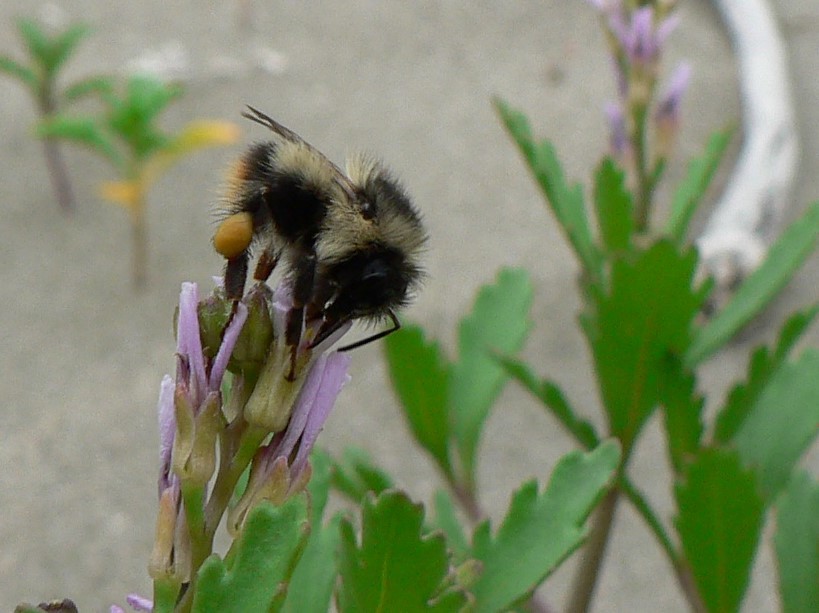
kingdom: Animalia
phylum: Arthropoda
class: Insecta
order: Hymenoptera
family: Apidae
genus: Bombus
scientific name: Bombus mixtus
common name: Fuzzy-horned bumble bee
